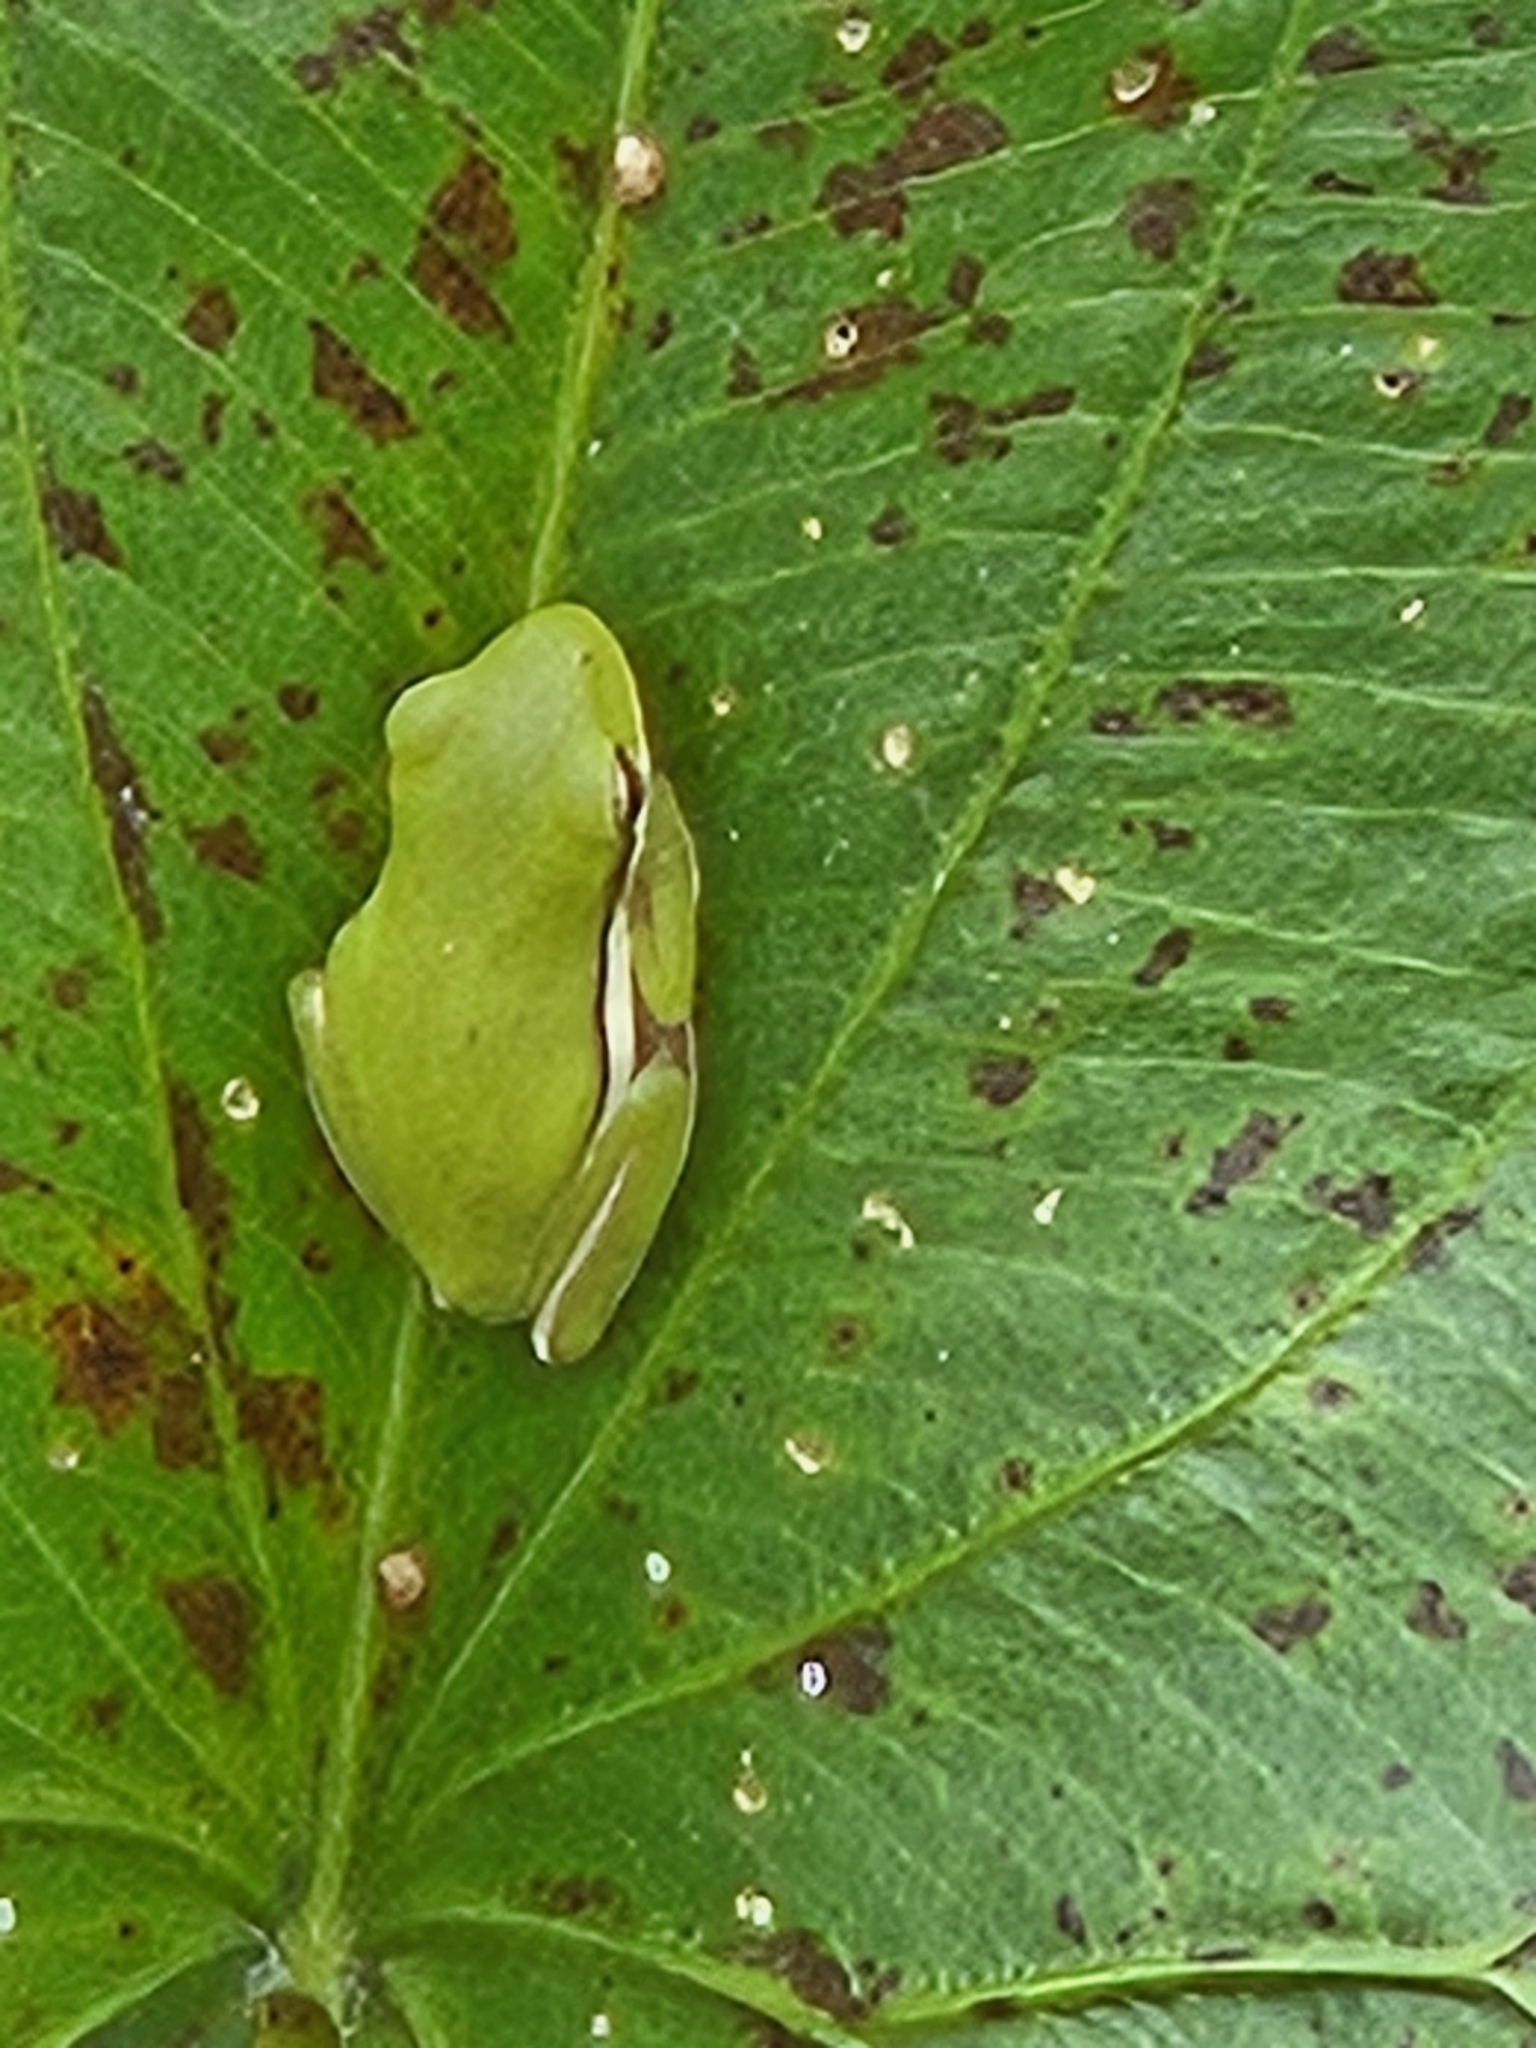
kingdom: Animalia
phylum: Chordata
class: Amphibia
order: Anura
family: Hylidae
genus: Dryophytes
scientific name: Dryophytes cinereus
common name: Green treefrog
